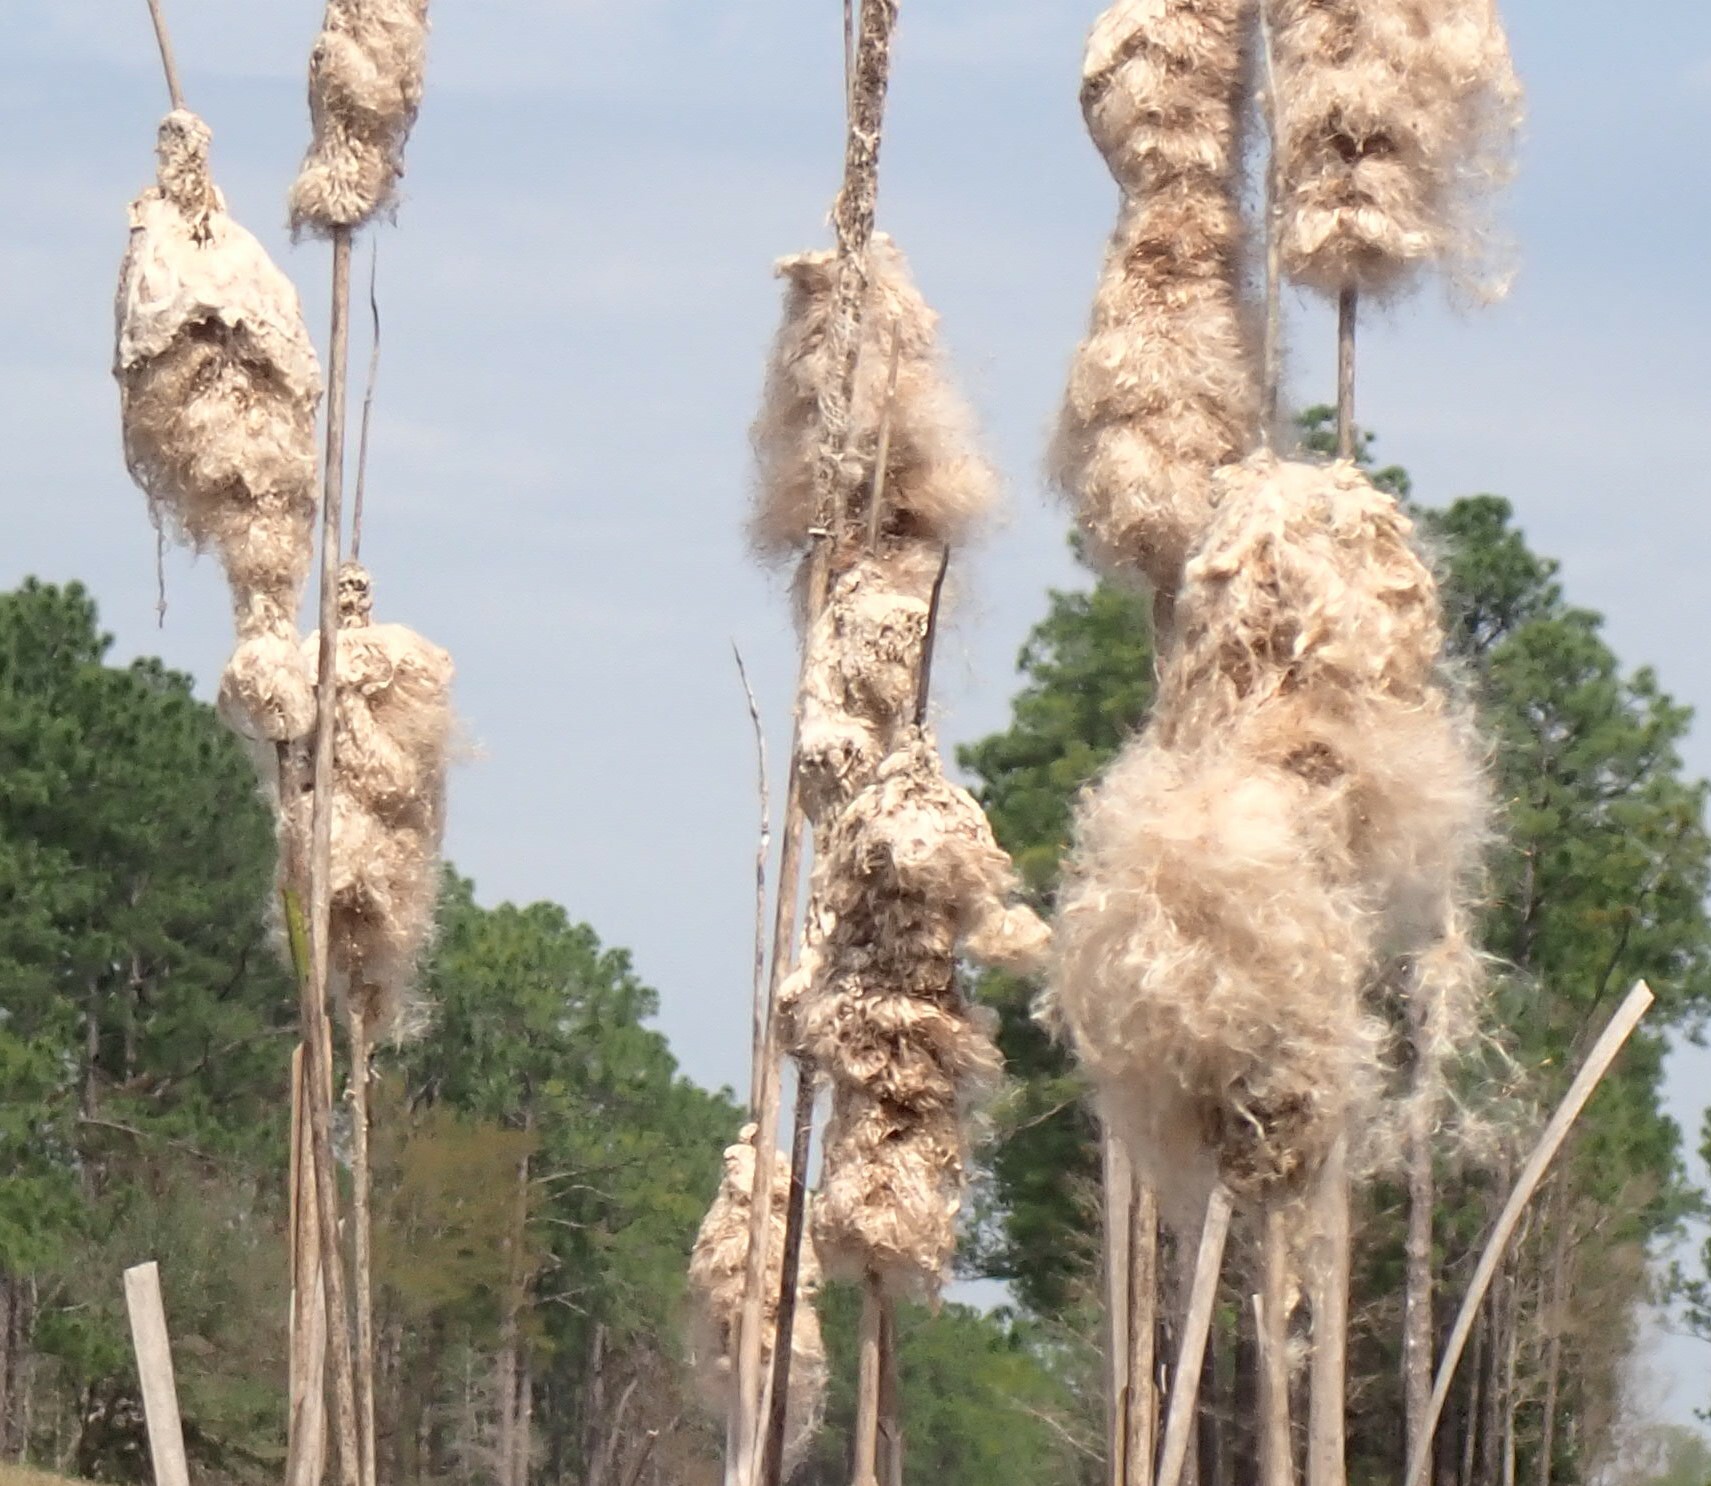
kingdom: Plantae
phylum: Tracheophyta
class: Liliopsida
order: Poales
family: Typhaceae
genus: Typha
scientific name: Typha latifolia
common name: Broadleaf cattail
